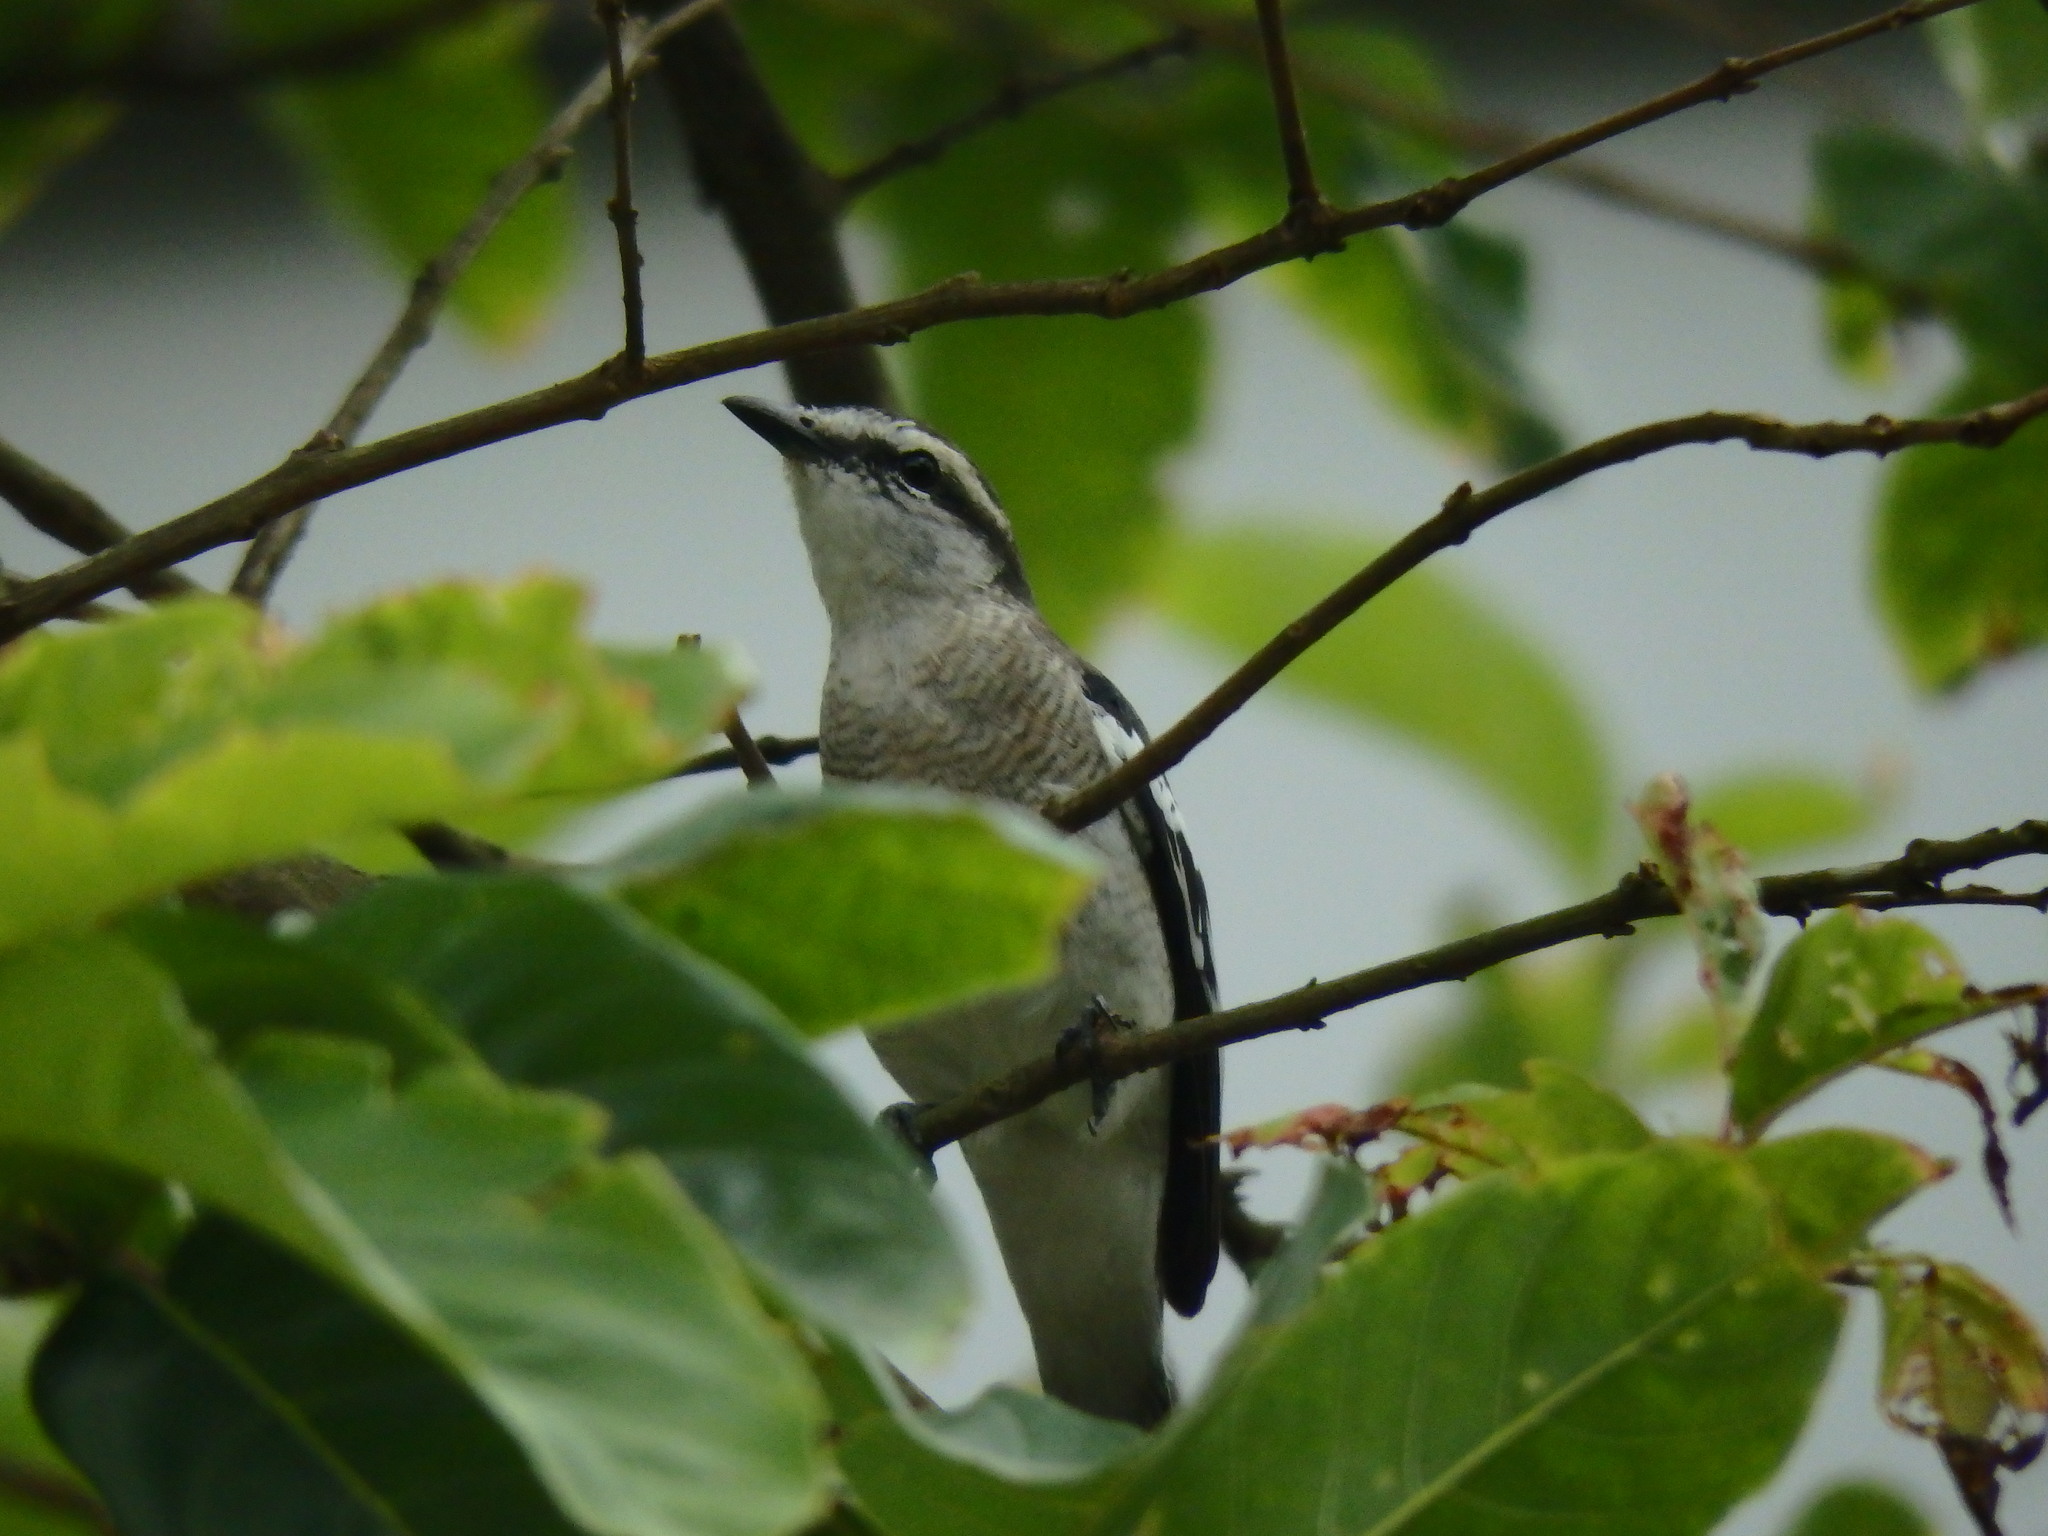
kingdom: Animalia
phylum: Chordata
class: Aves
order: Passeriformes
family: Campephagidae
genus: Lalage
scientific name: Lalage nigra
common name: Pied triller
